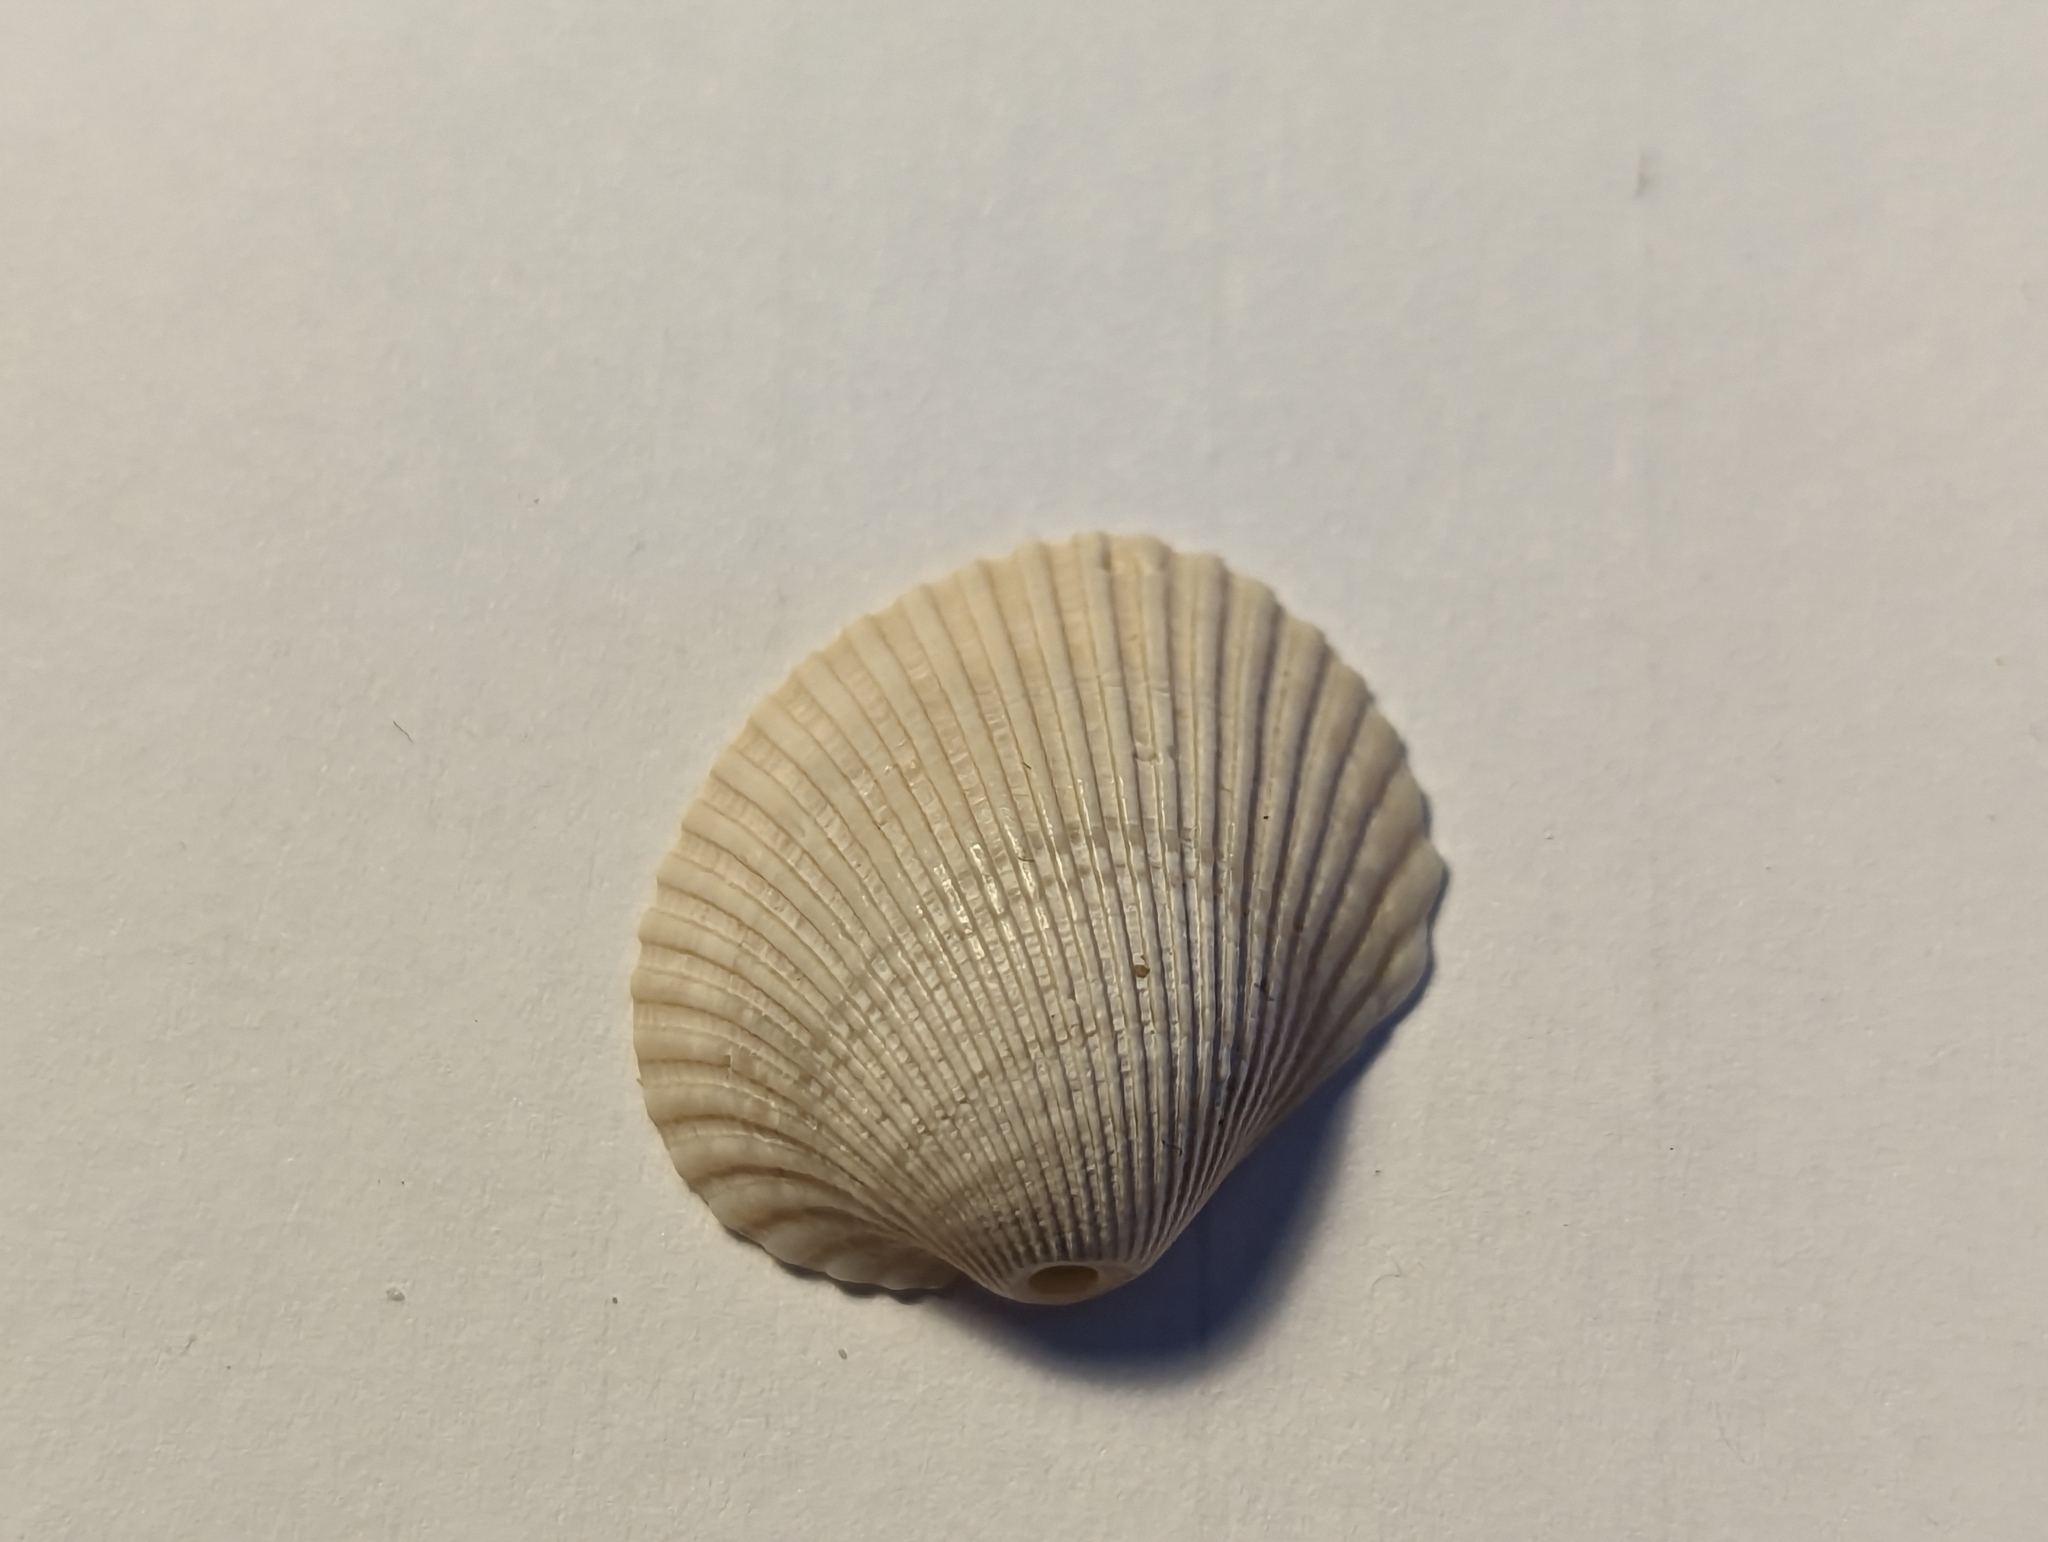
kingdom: Animalia
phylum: Mollusca
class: Bivalvia
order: Arcida
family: Arcidae
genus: Lunarca
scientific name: Lunarca ovalis
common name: Blood ark
